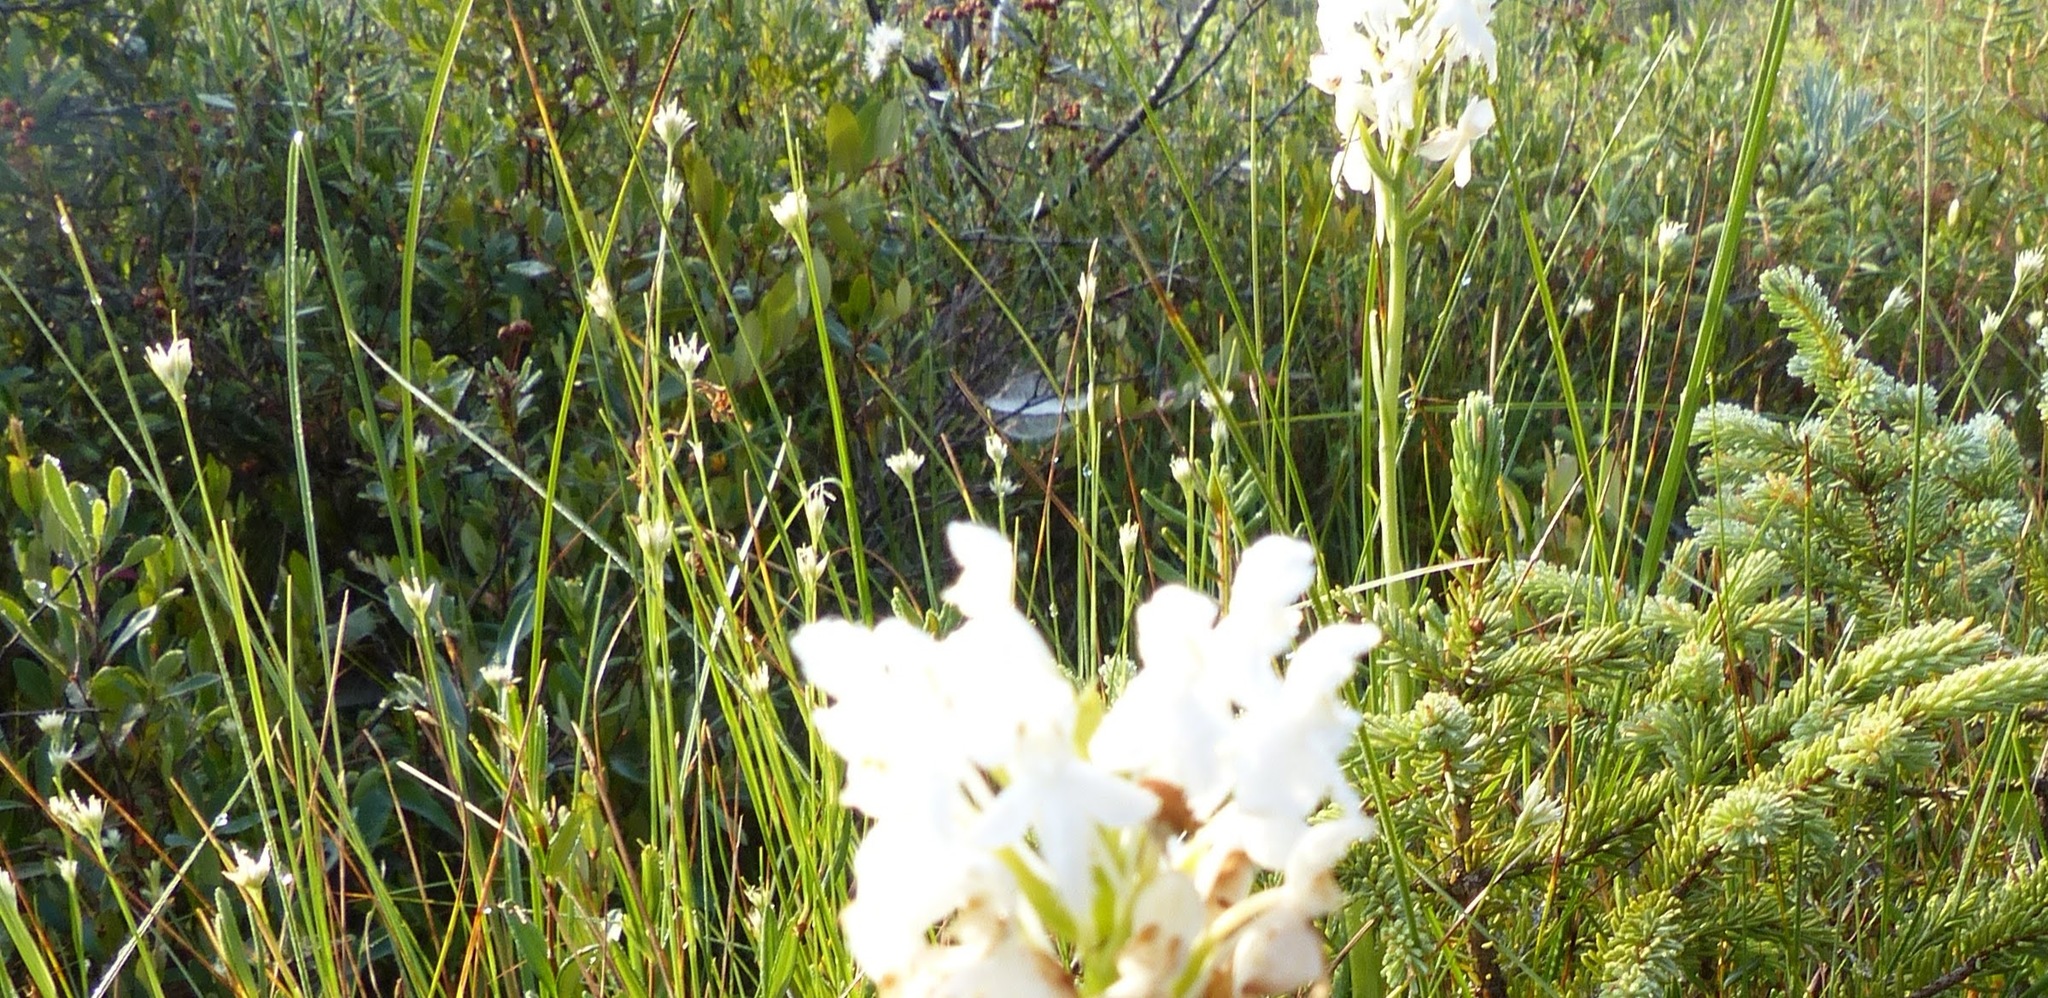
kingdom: Plantae
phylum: Tracheophyta
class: Liliopsida
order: Poales
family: Cyperaceae
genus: Rhynchospora
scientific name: Rhynchospora alba
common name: White beak-sedge
